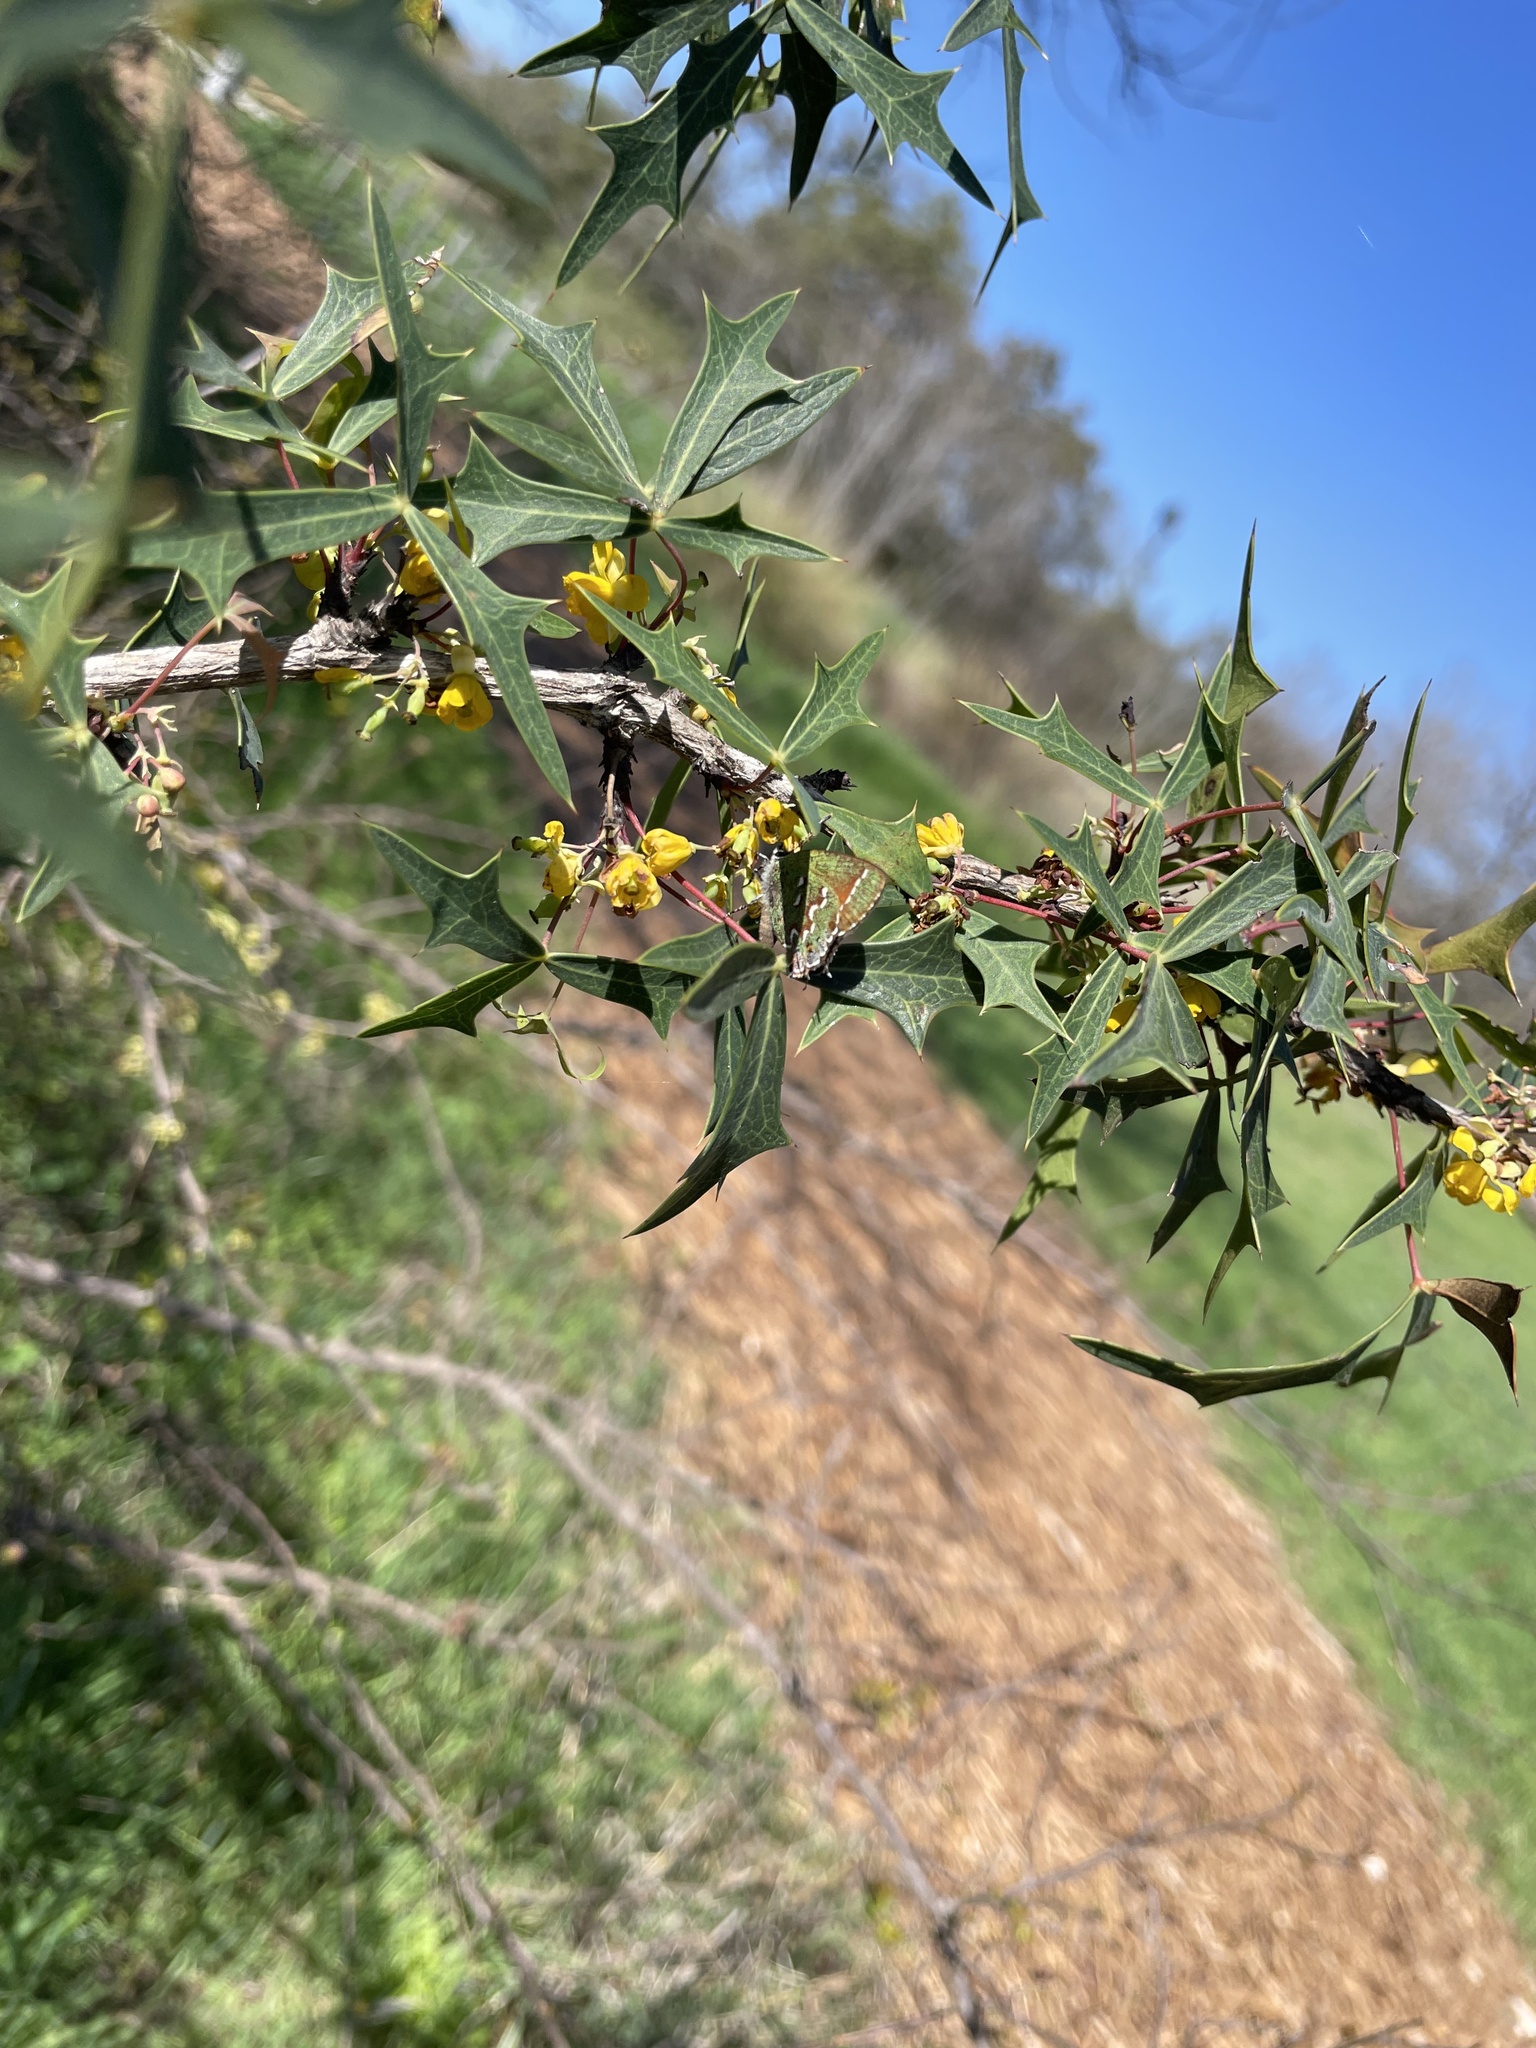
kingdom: Animalia
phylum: Arthropoda
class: Insecta
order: Lepidoptera
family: Lycaenidae
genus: Mitoura
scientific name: Mitoura gryneus
